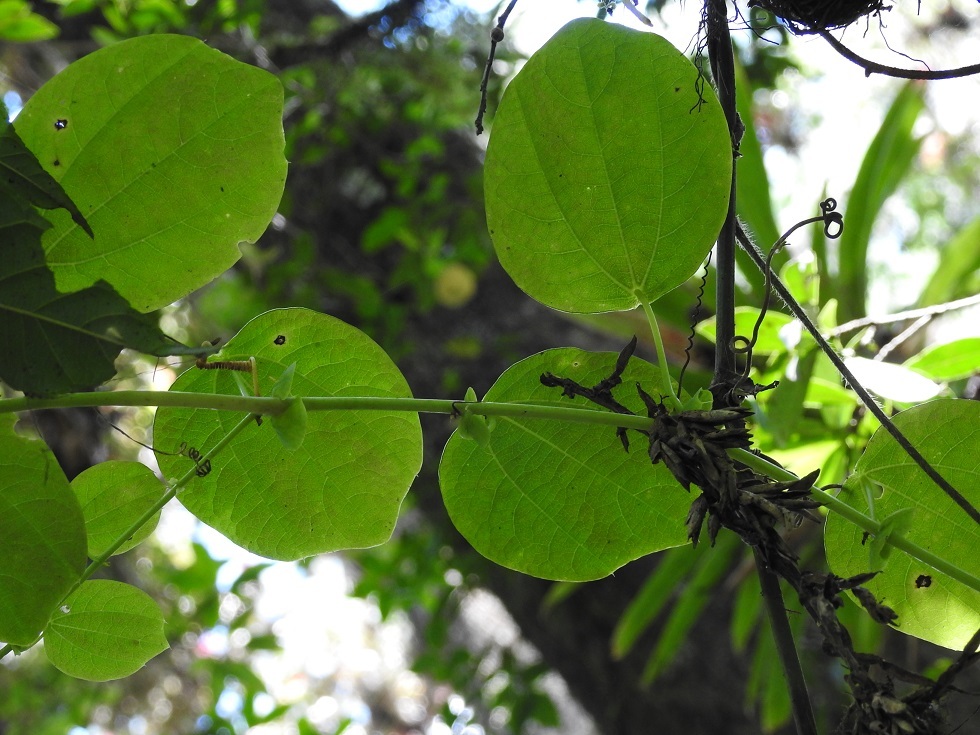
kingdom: Plantae
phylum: Tracheophyta
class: Magnoliopsida
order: Malpighiales
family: Passifloraceae
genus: Passiflora
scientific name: Passiflora membranacea
